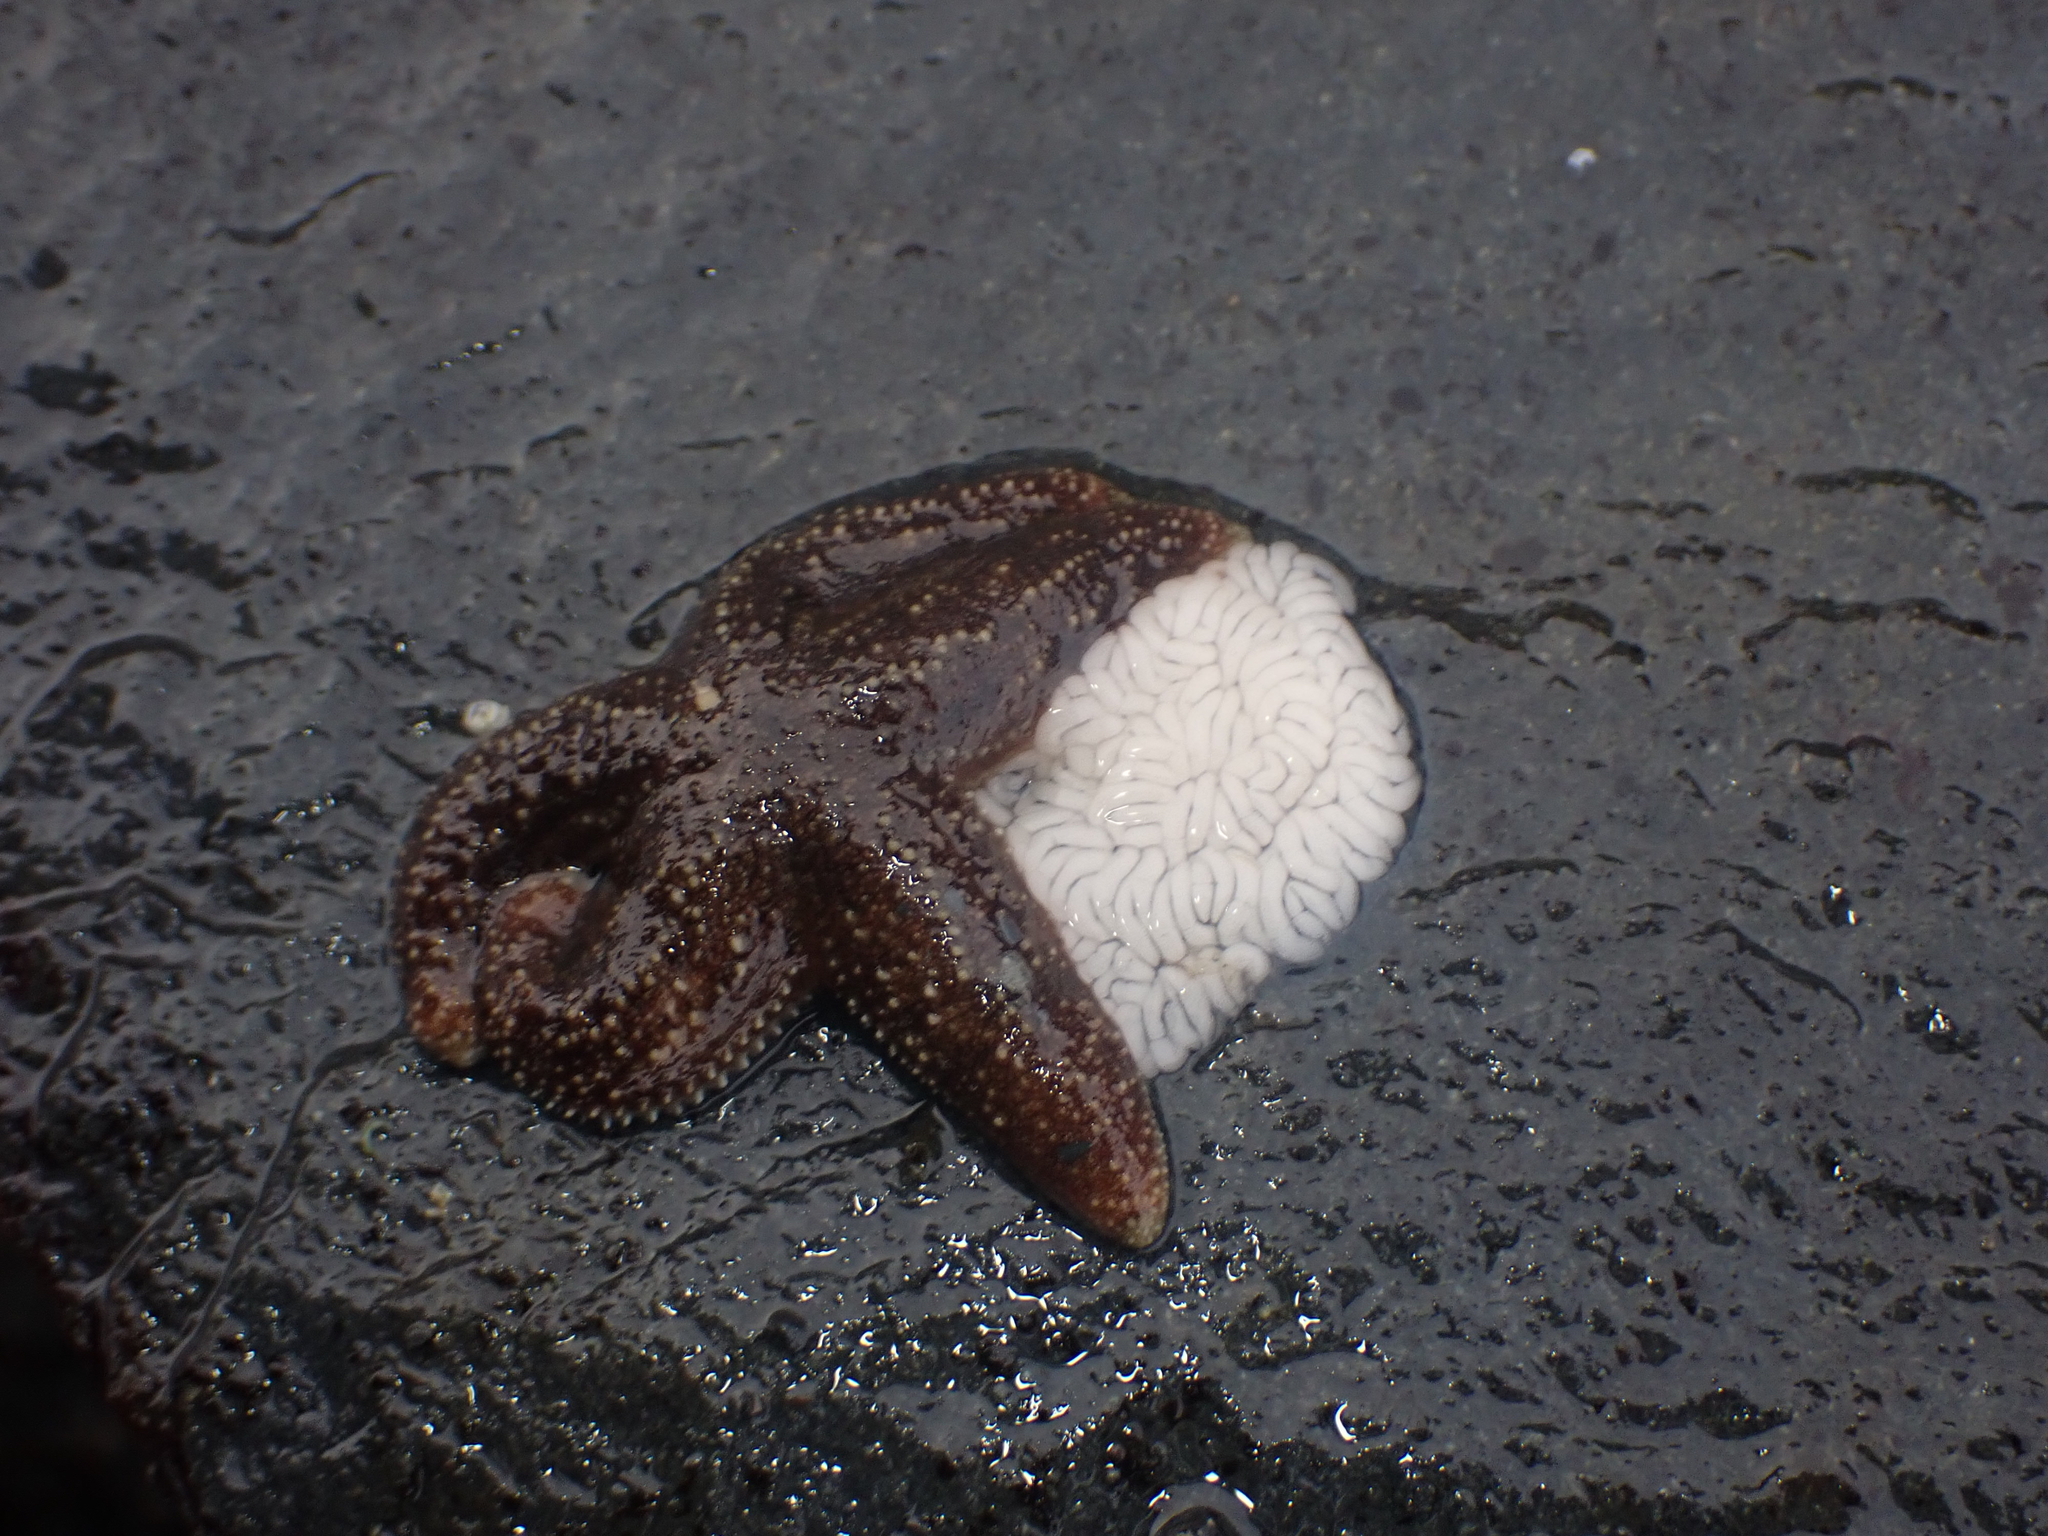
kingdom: Animalia
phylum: Echinodermata
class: Asteroidea
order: Forcipulatida
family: Asteriidae
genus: Evasterias
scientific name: Evasterias troschelii
